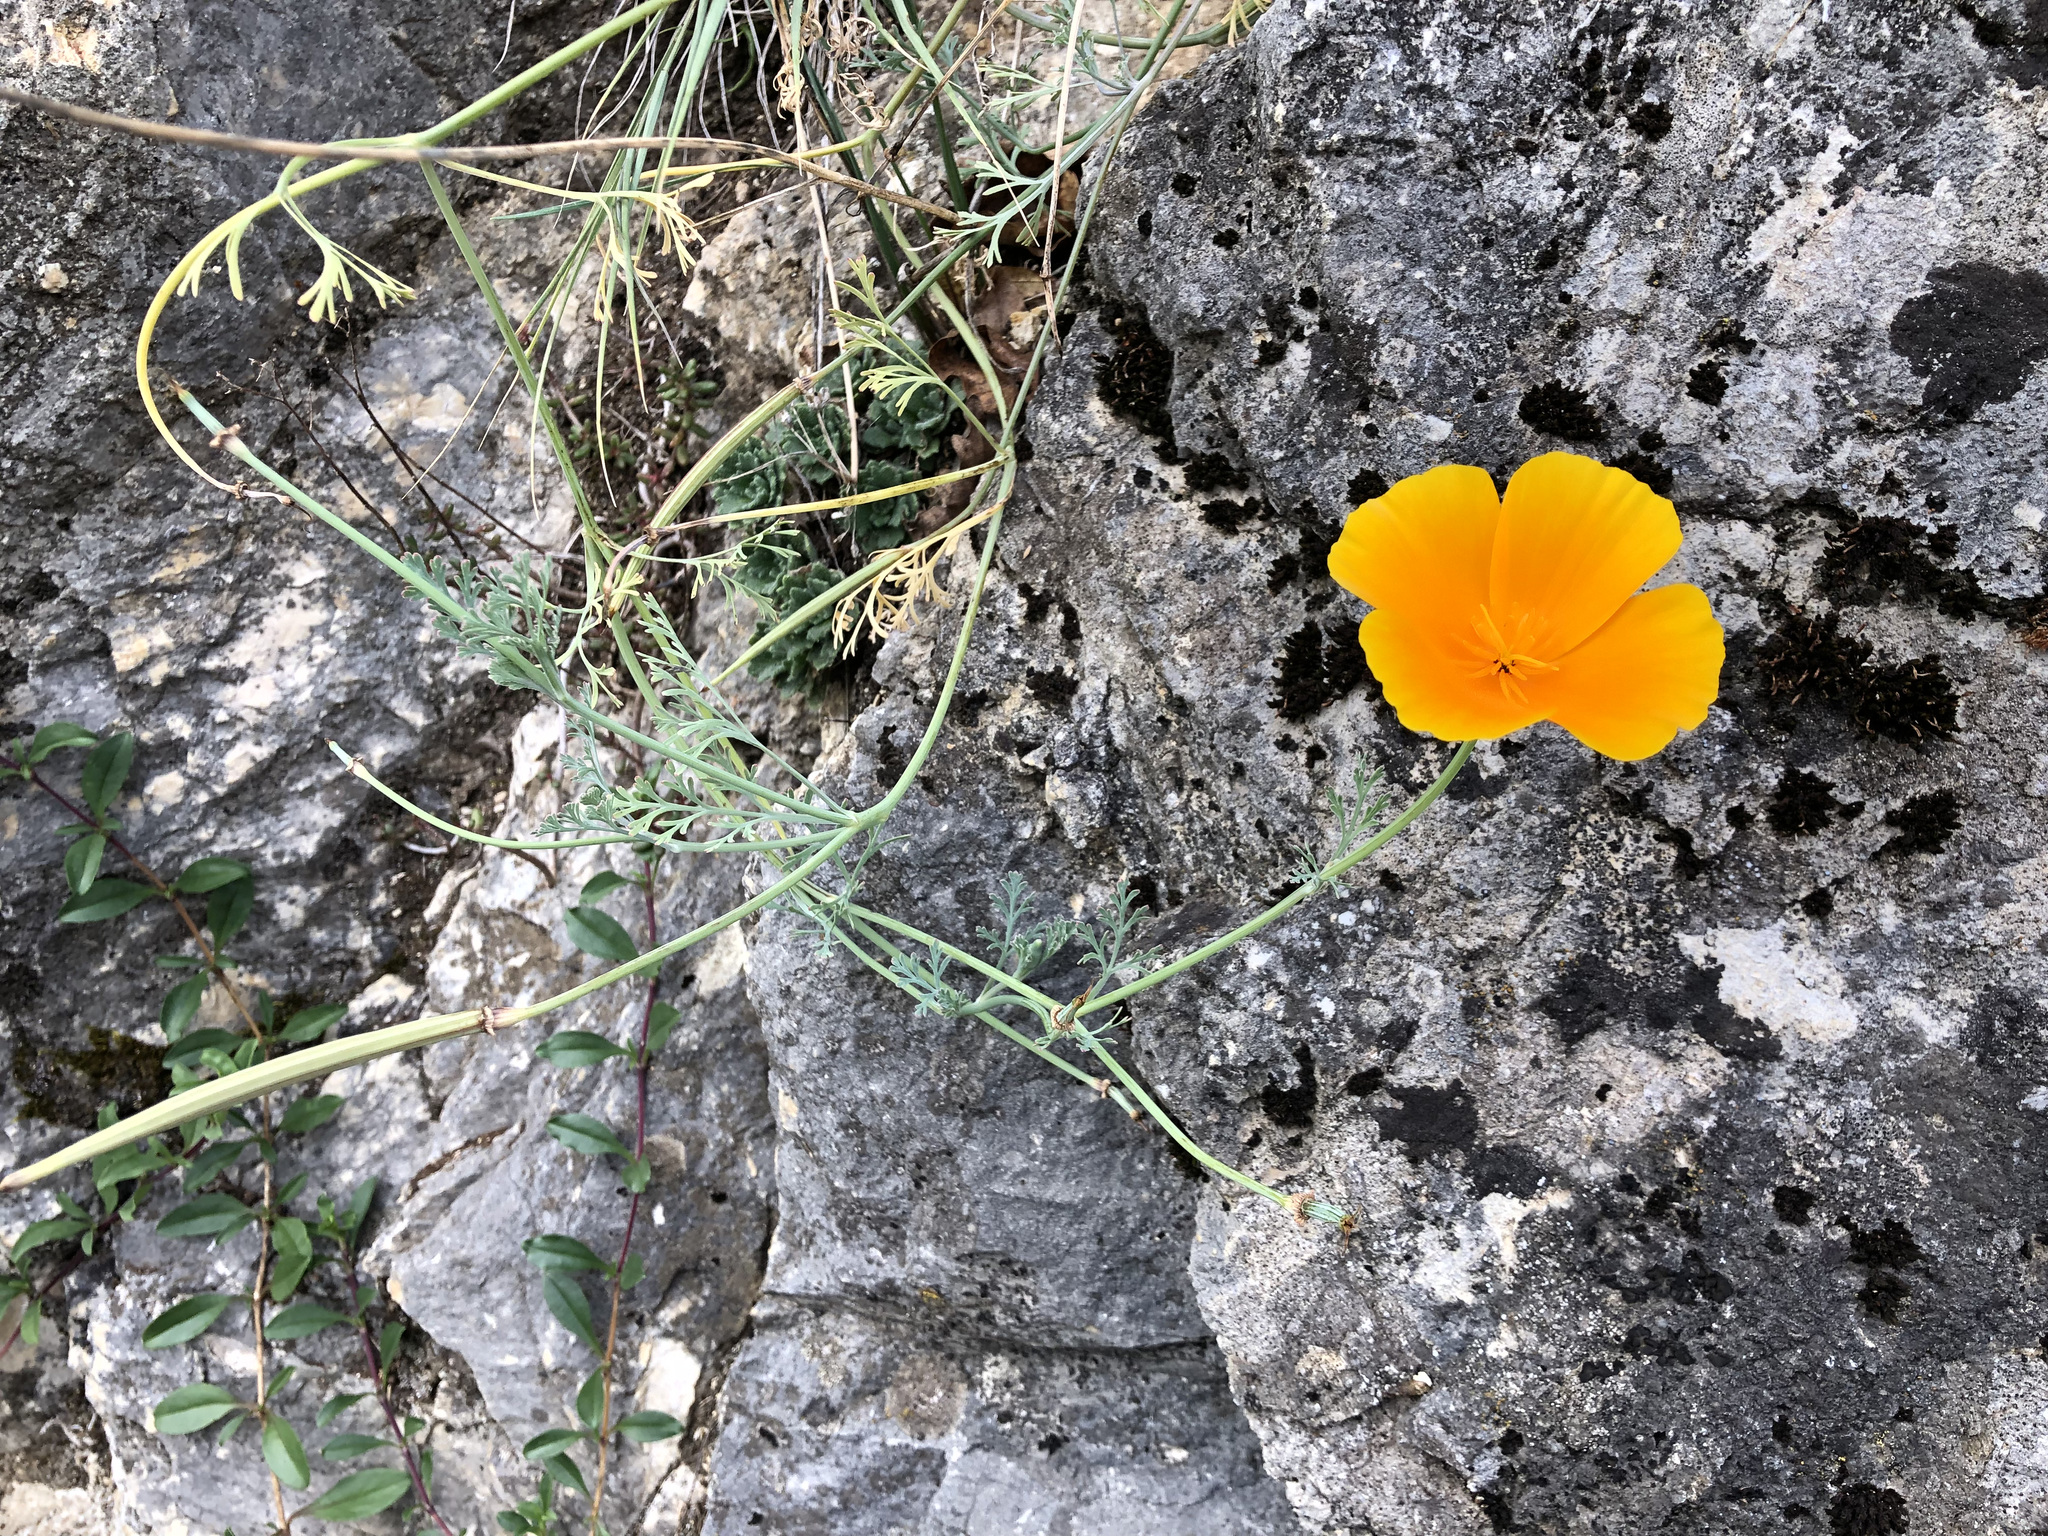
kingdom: Plantae
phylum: Tracheophyta
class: Magnoliopsida
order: Ranunculales
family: Papaveraceae
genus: Eschscholzia
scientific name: Eschscholzia californica
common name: California poppy
